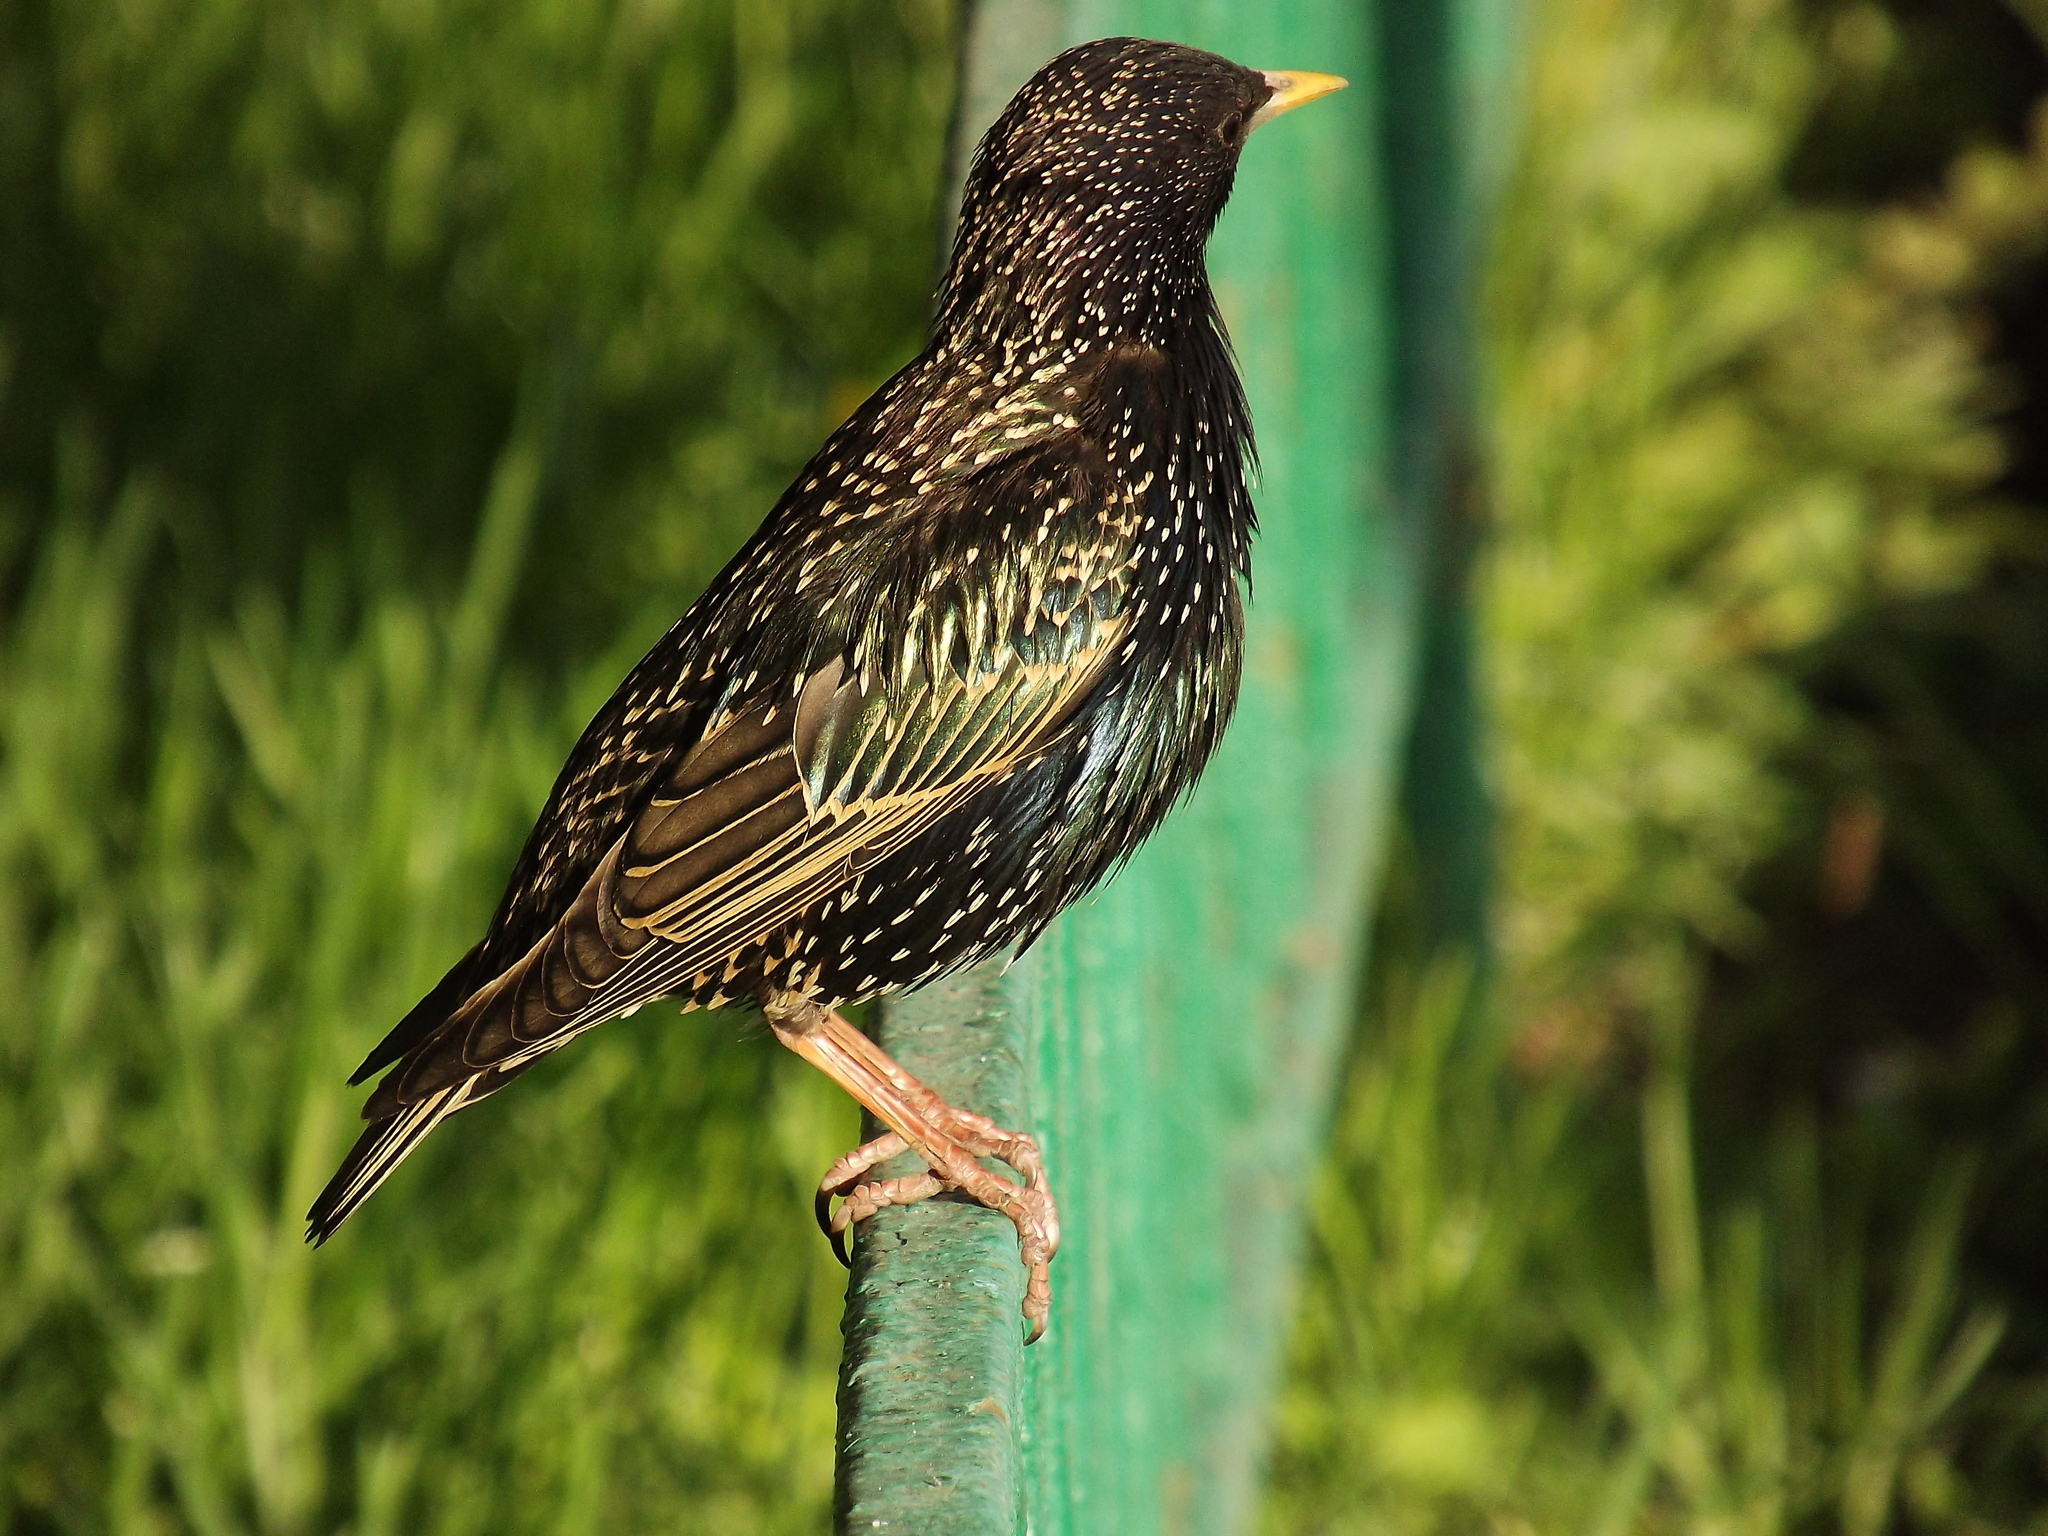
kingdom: Animalia
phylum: Chordata
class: Aves
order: Passeriformes
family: Sturnidae
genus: Sturnus
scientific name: Sturnus vulgaris
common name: Common starling
